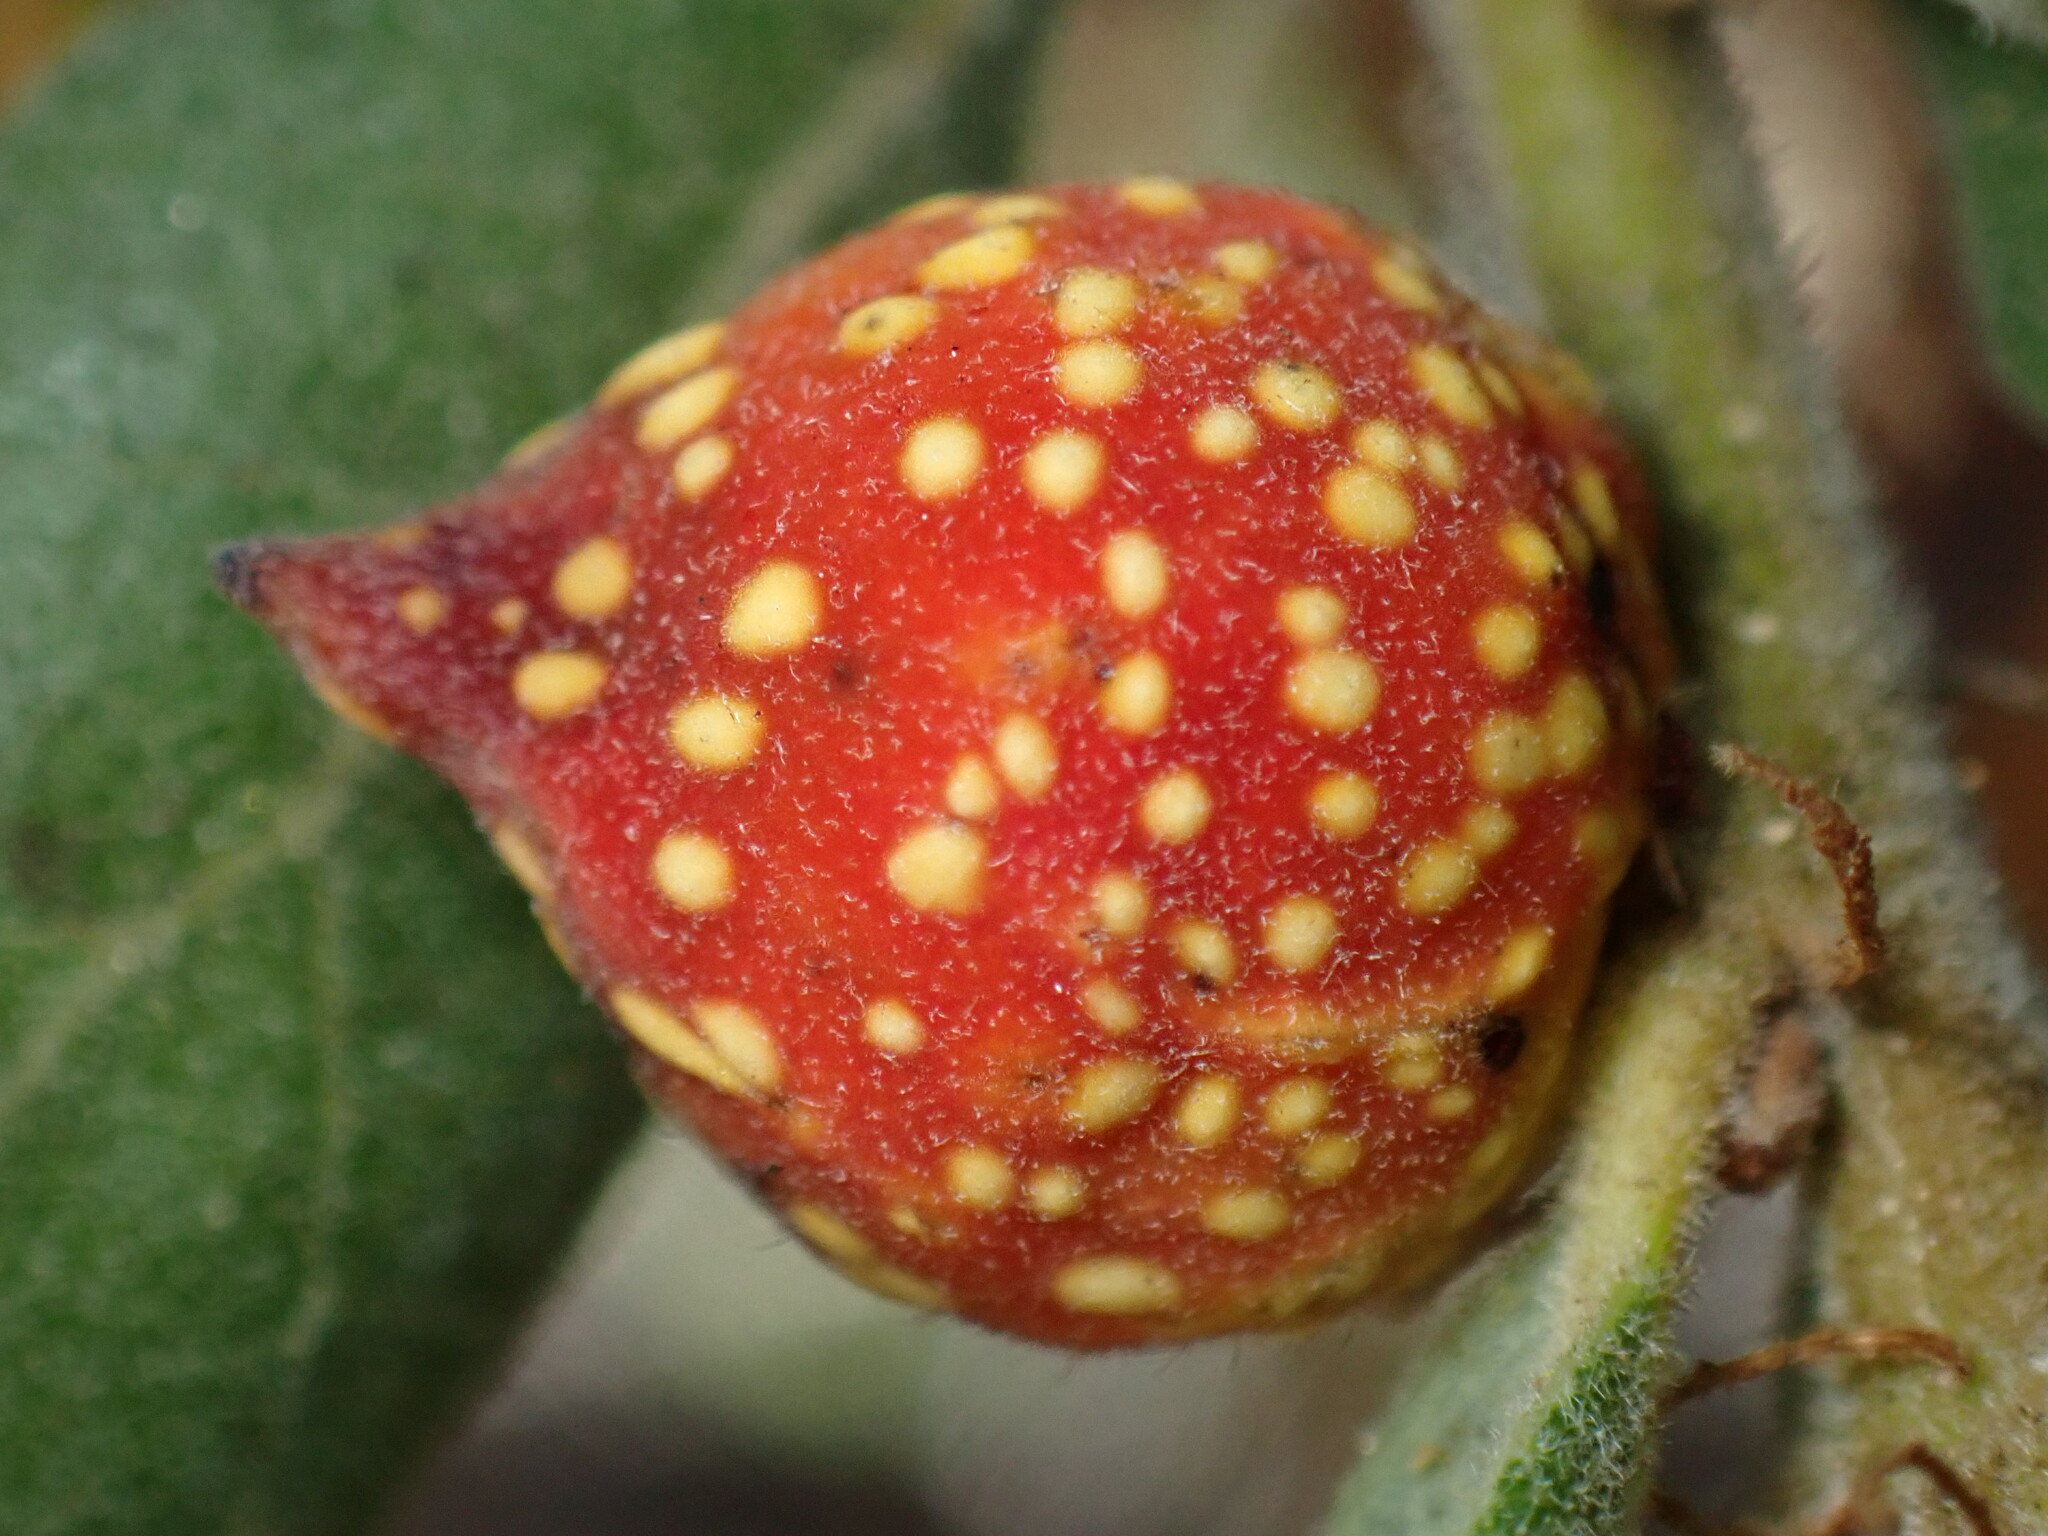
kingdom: Animalia
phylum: Arthropoda
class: Insecta
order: Hymenoptera
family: Cynipidae
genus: Burnettweldia
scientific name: Burnettweldia
